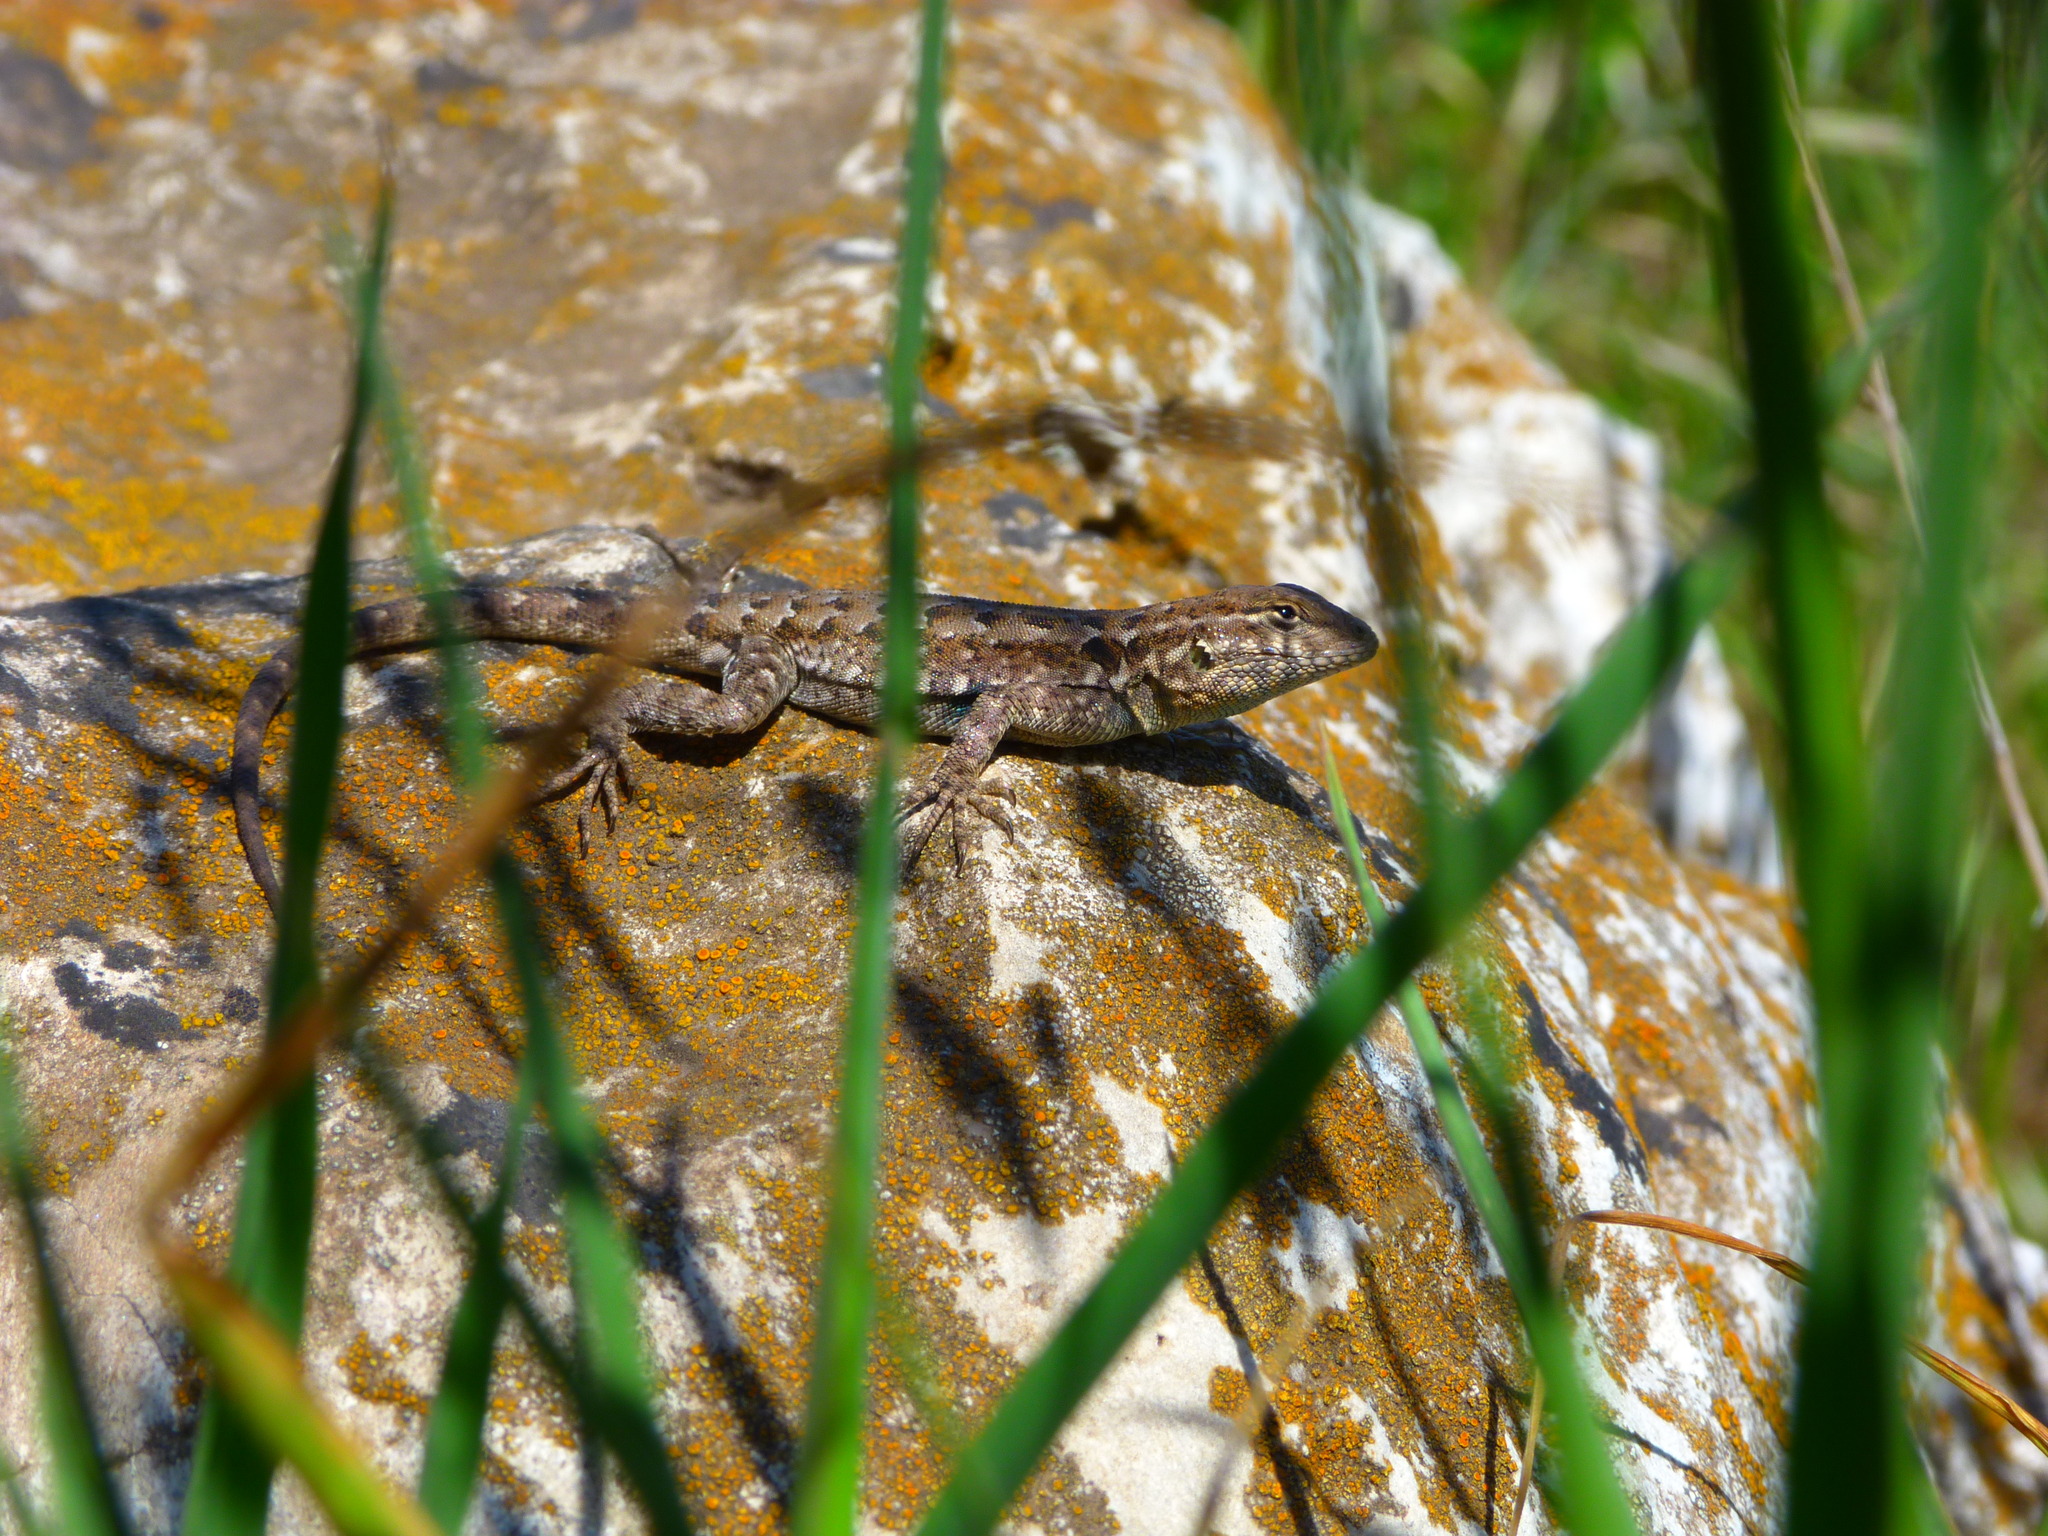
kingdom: Animalia
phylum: Chordata
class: Squamata
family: Phrynosomatidae
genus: Uta
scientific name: Uta stansburiana
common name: Side-blotched lizard
